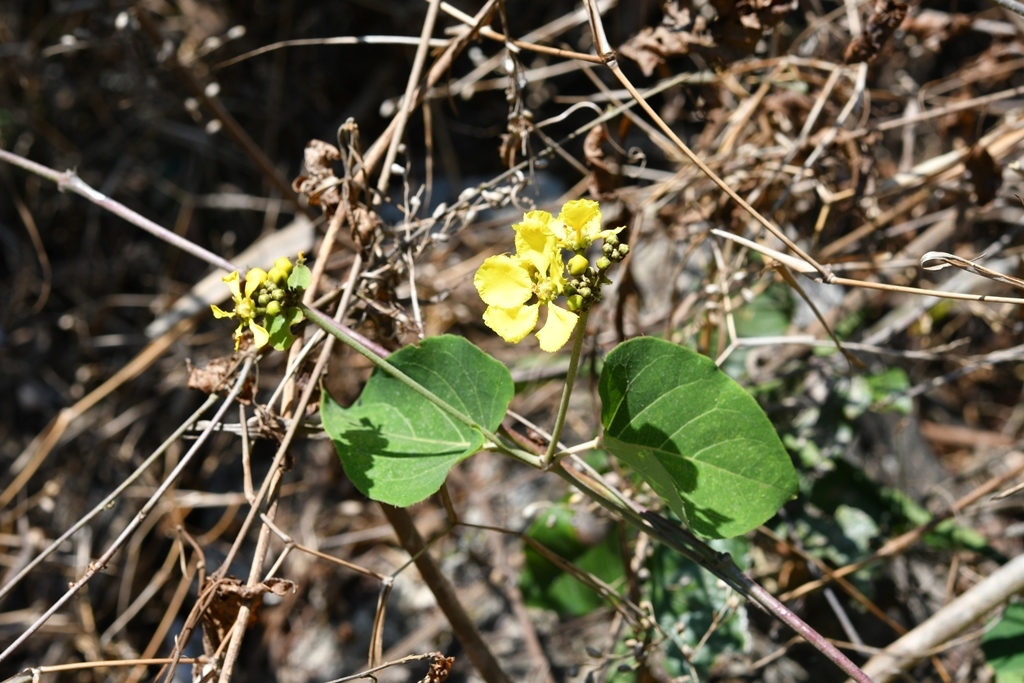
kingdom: Plantae
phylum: Tracheophyta
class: Magnoliopsida
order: Malpighiales
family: Malpighiaceae
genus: Stigmaphyllon
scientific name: Stigmaphyllon selerianum
